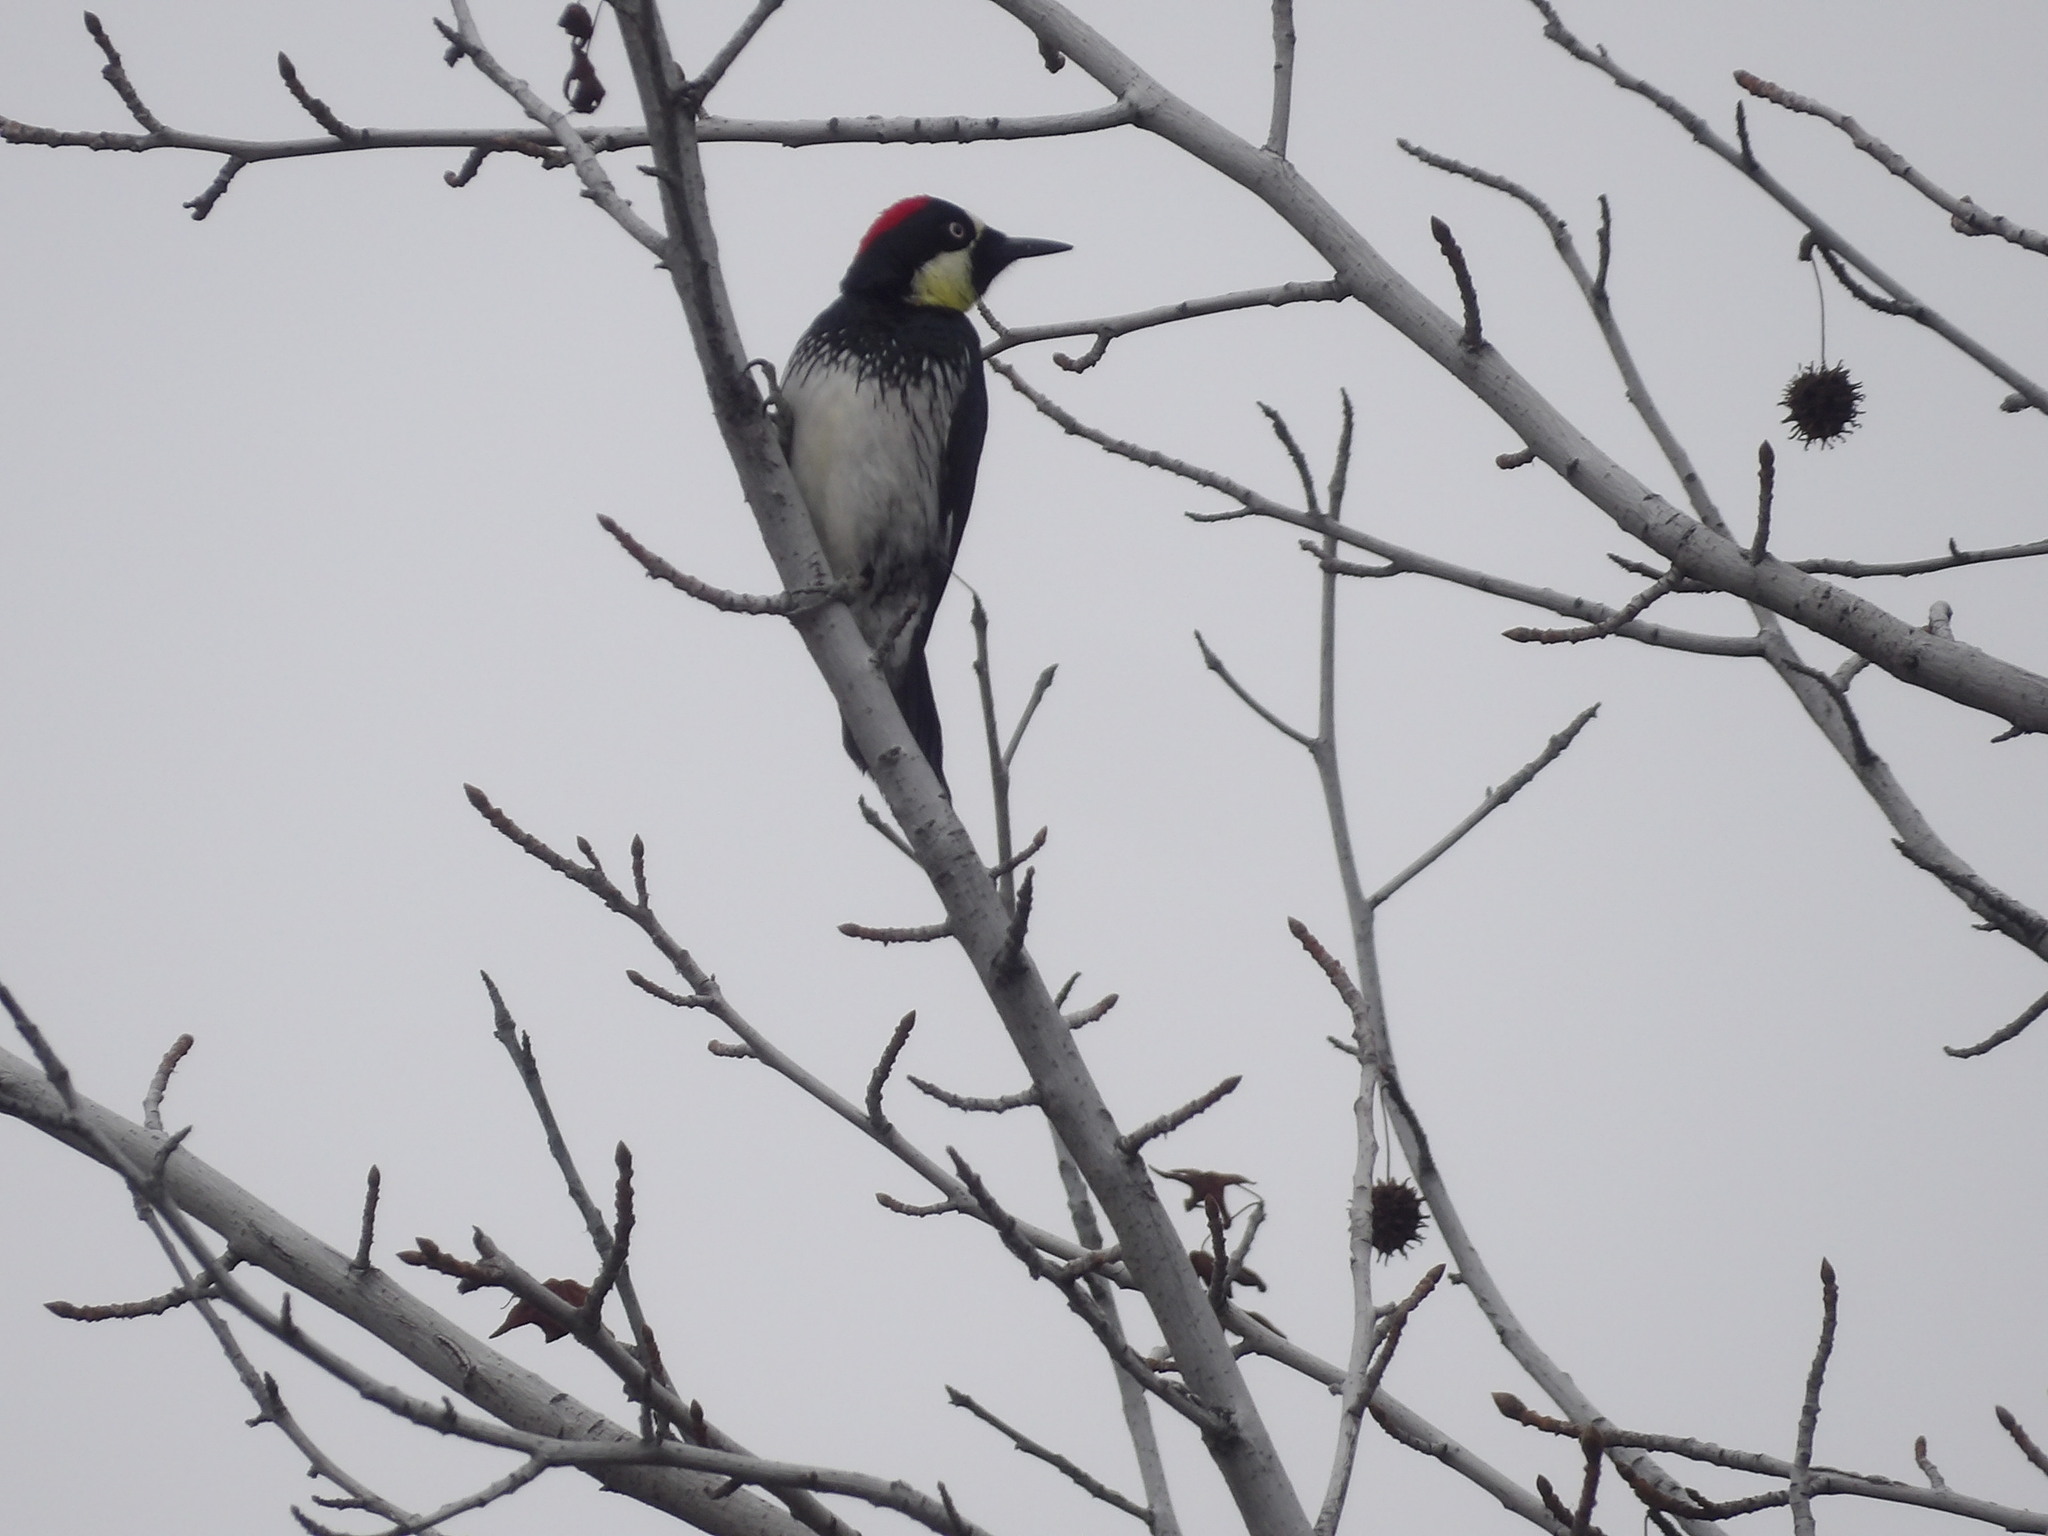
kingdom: Animalia
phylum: Chordata
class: Aves
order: Piciformes
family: Picidae
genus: Melanerpes
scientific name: Melanerpes formicivorus
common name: Acorn woodpecker
